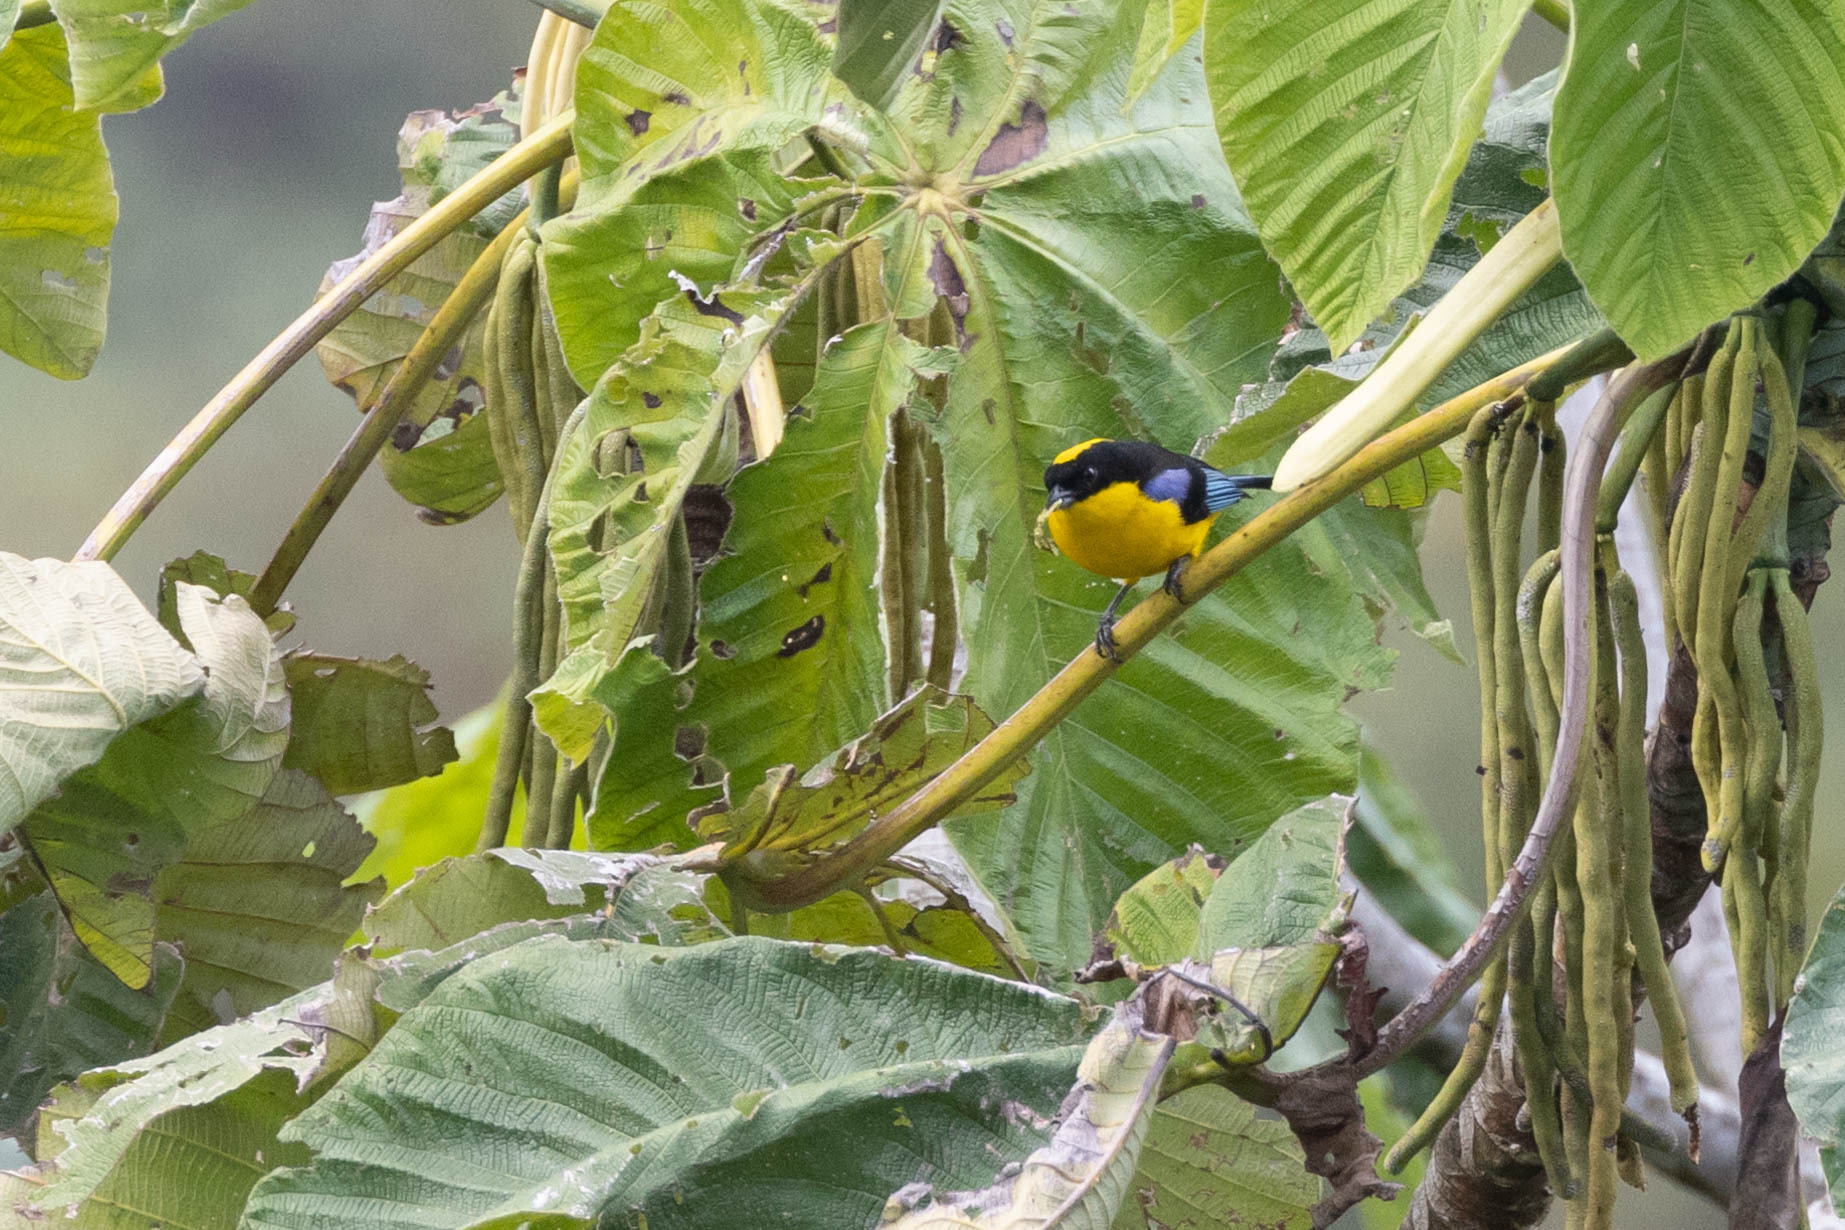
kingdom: Animalia
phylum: Chordata
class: Aves
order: Passeriformes
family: Thraupidae
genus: Anisognathus
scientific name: Anisognathus somptuosus
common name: Blue-winged mountain-tanager
